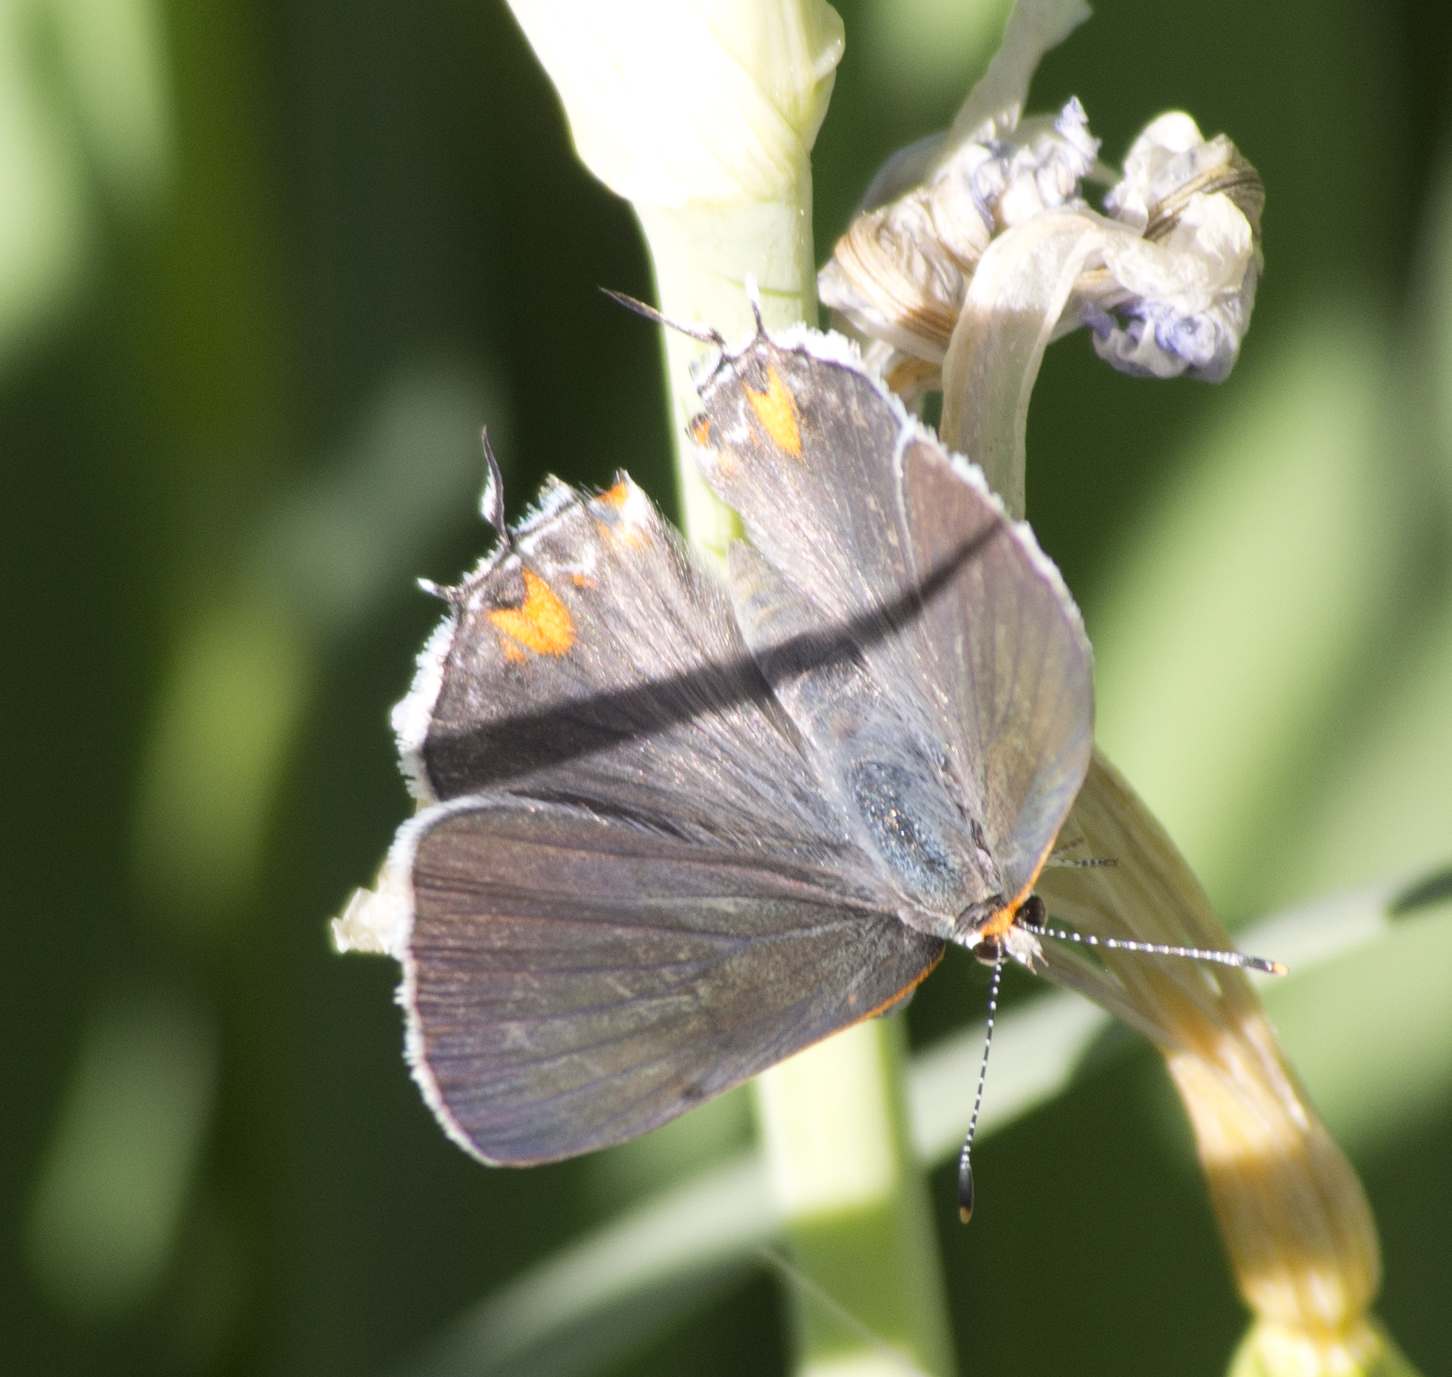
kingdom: Animalia
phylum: Arthropoda
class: Insecta
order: Lepidoptera
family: Lycaenidae
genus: Strymon
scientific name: Strymon melinus
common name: Gray hairstreak
